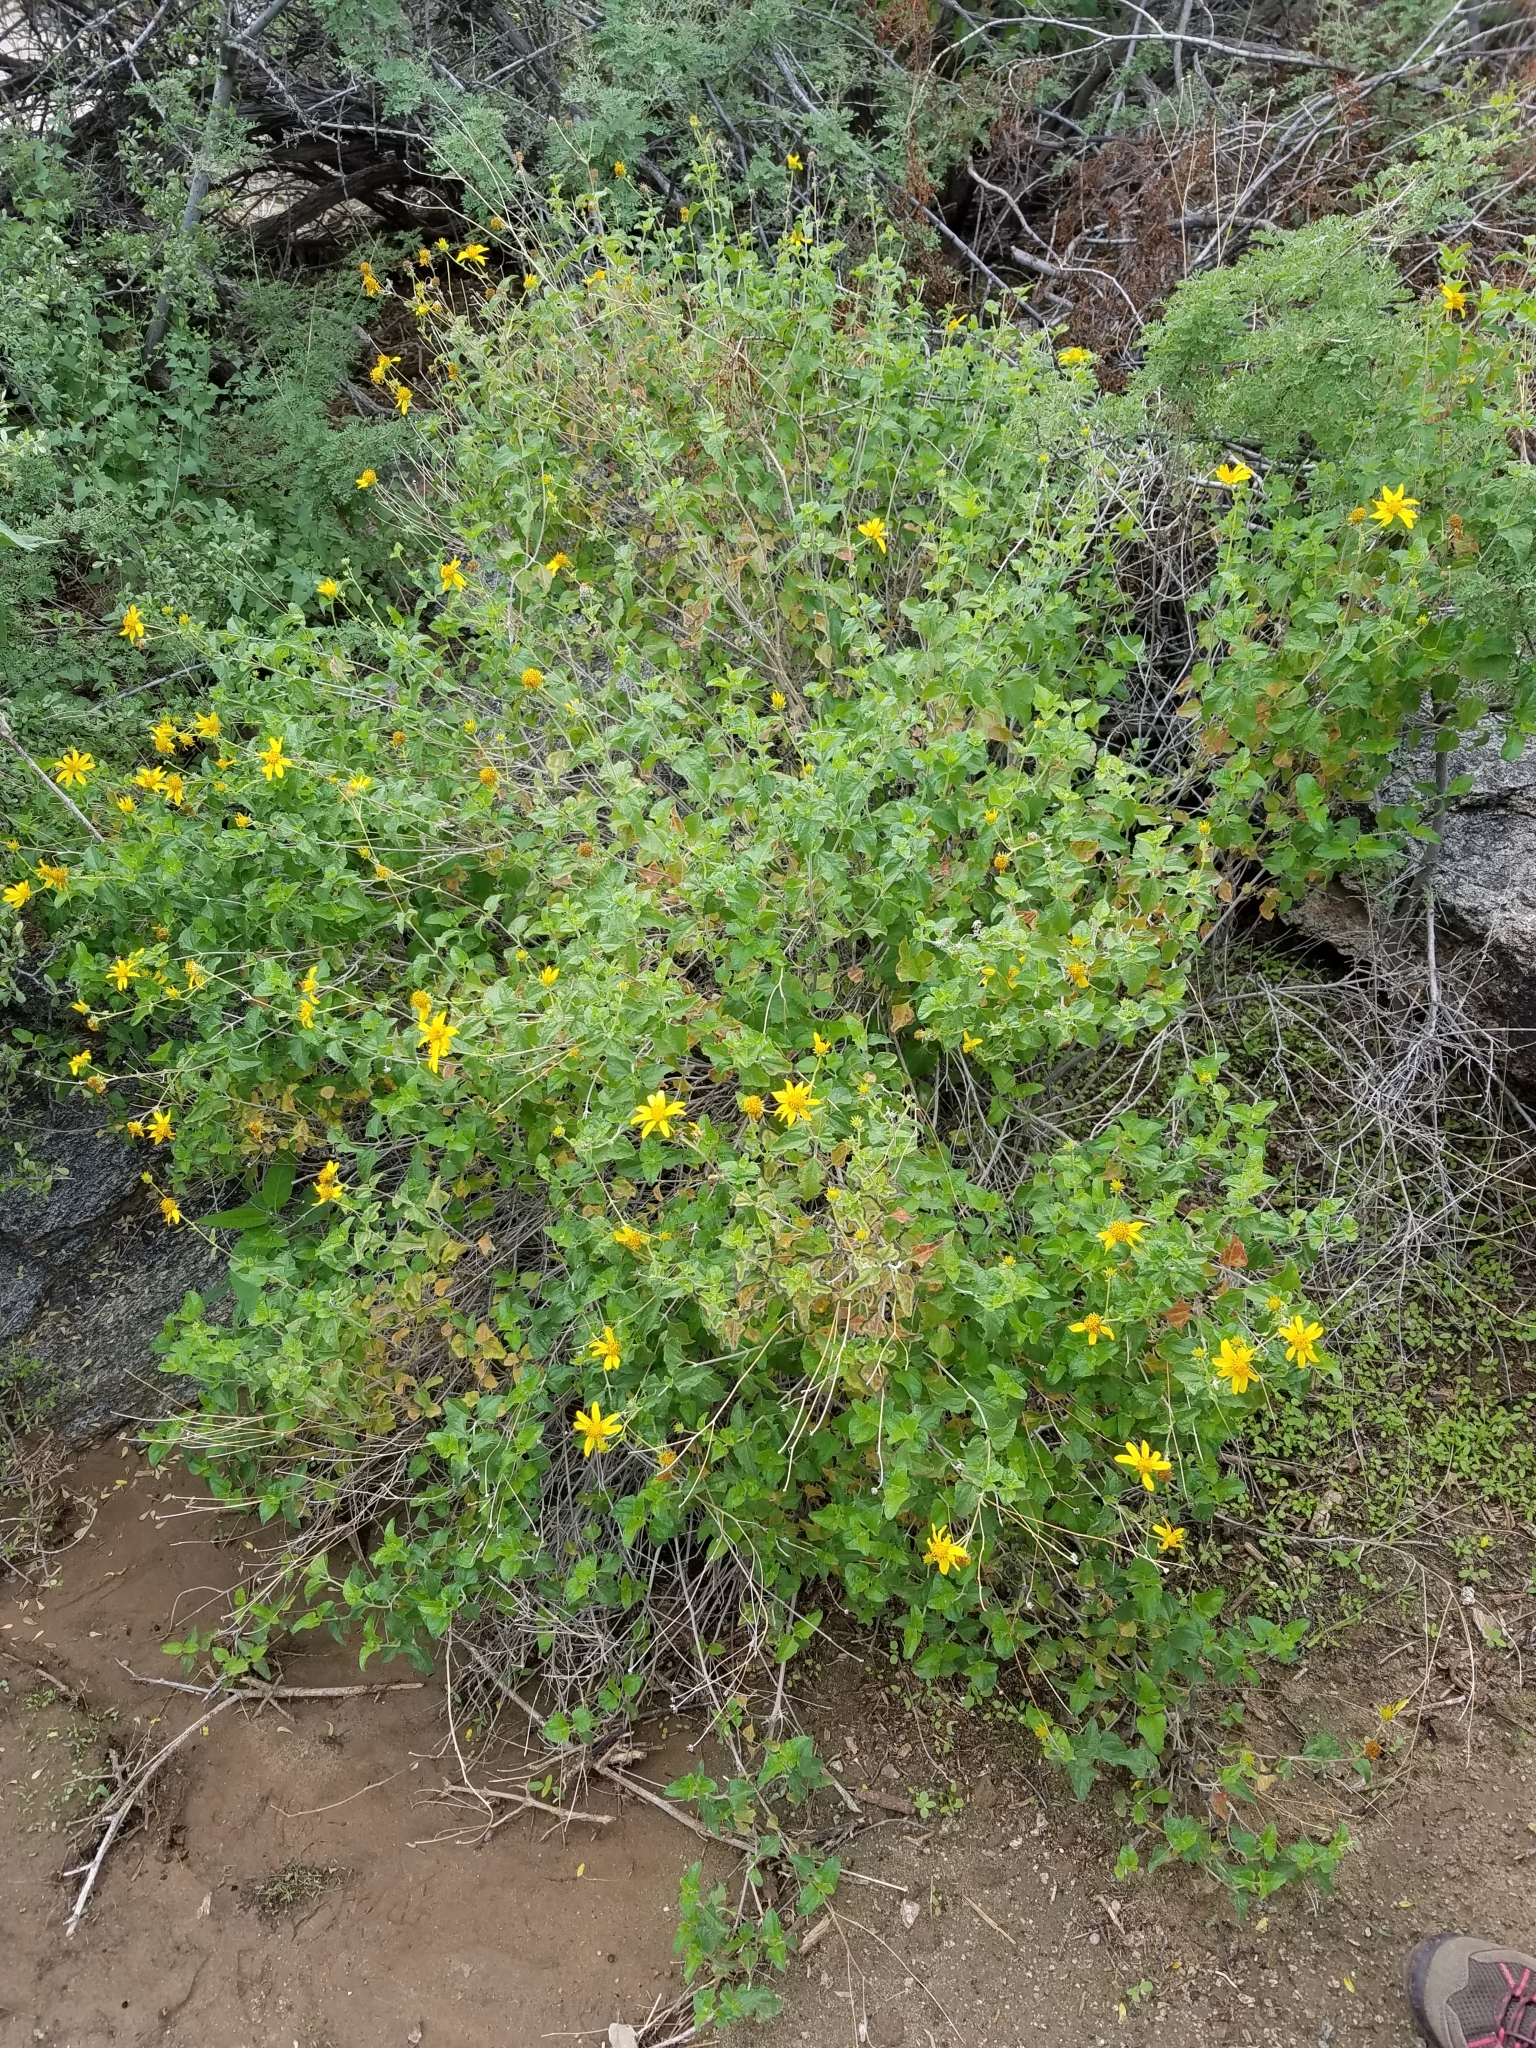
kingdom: Plantae
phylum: Tracheophyta
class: Magnoliopsida
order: Asterales
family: Asteraceae
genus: Bahiopsis
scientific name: Bahiopsis parishii
